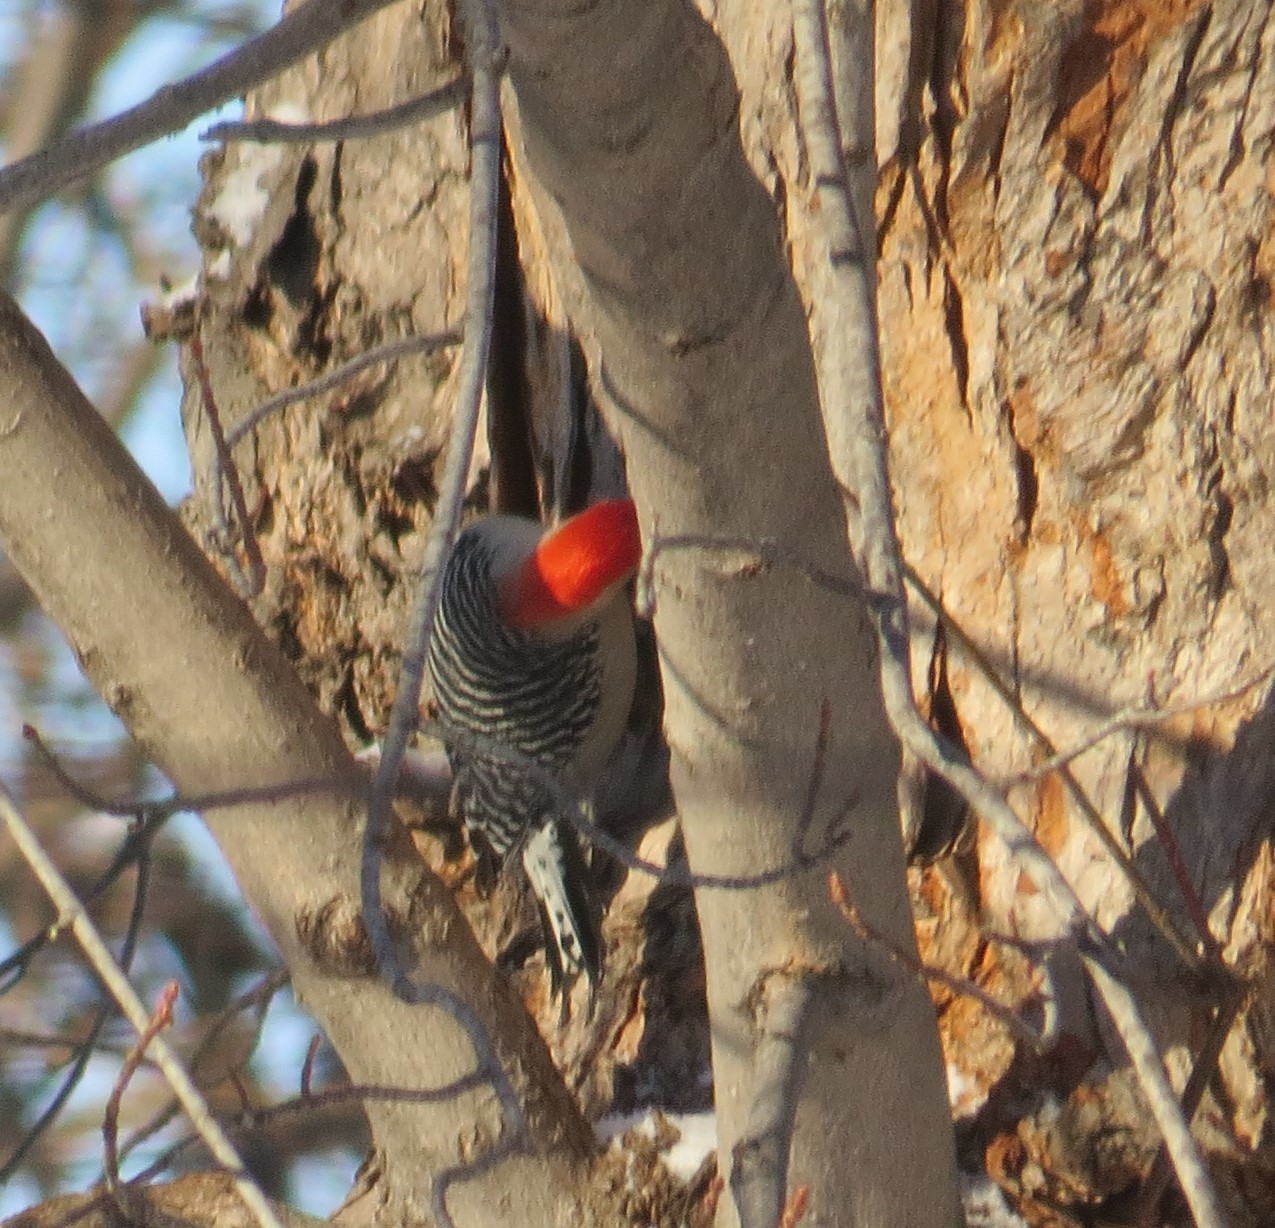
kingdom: Animalia
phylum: Chordata
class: Aves
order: Piciformes
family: Picidae
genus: Melanerpes
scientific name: Melanerpes carolinus
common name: Red-bellied woodpecker
